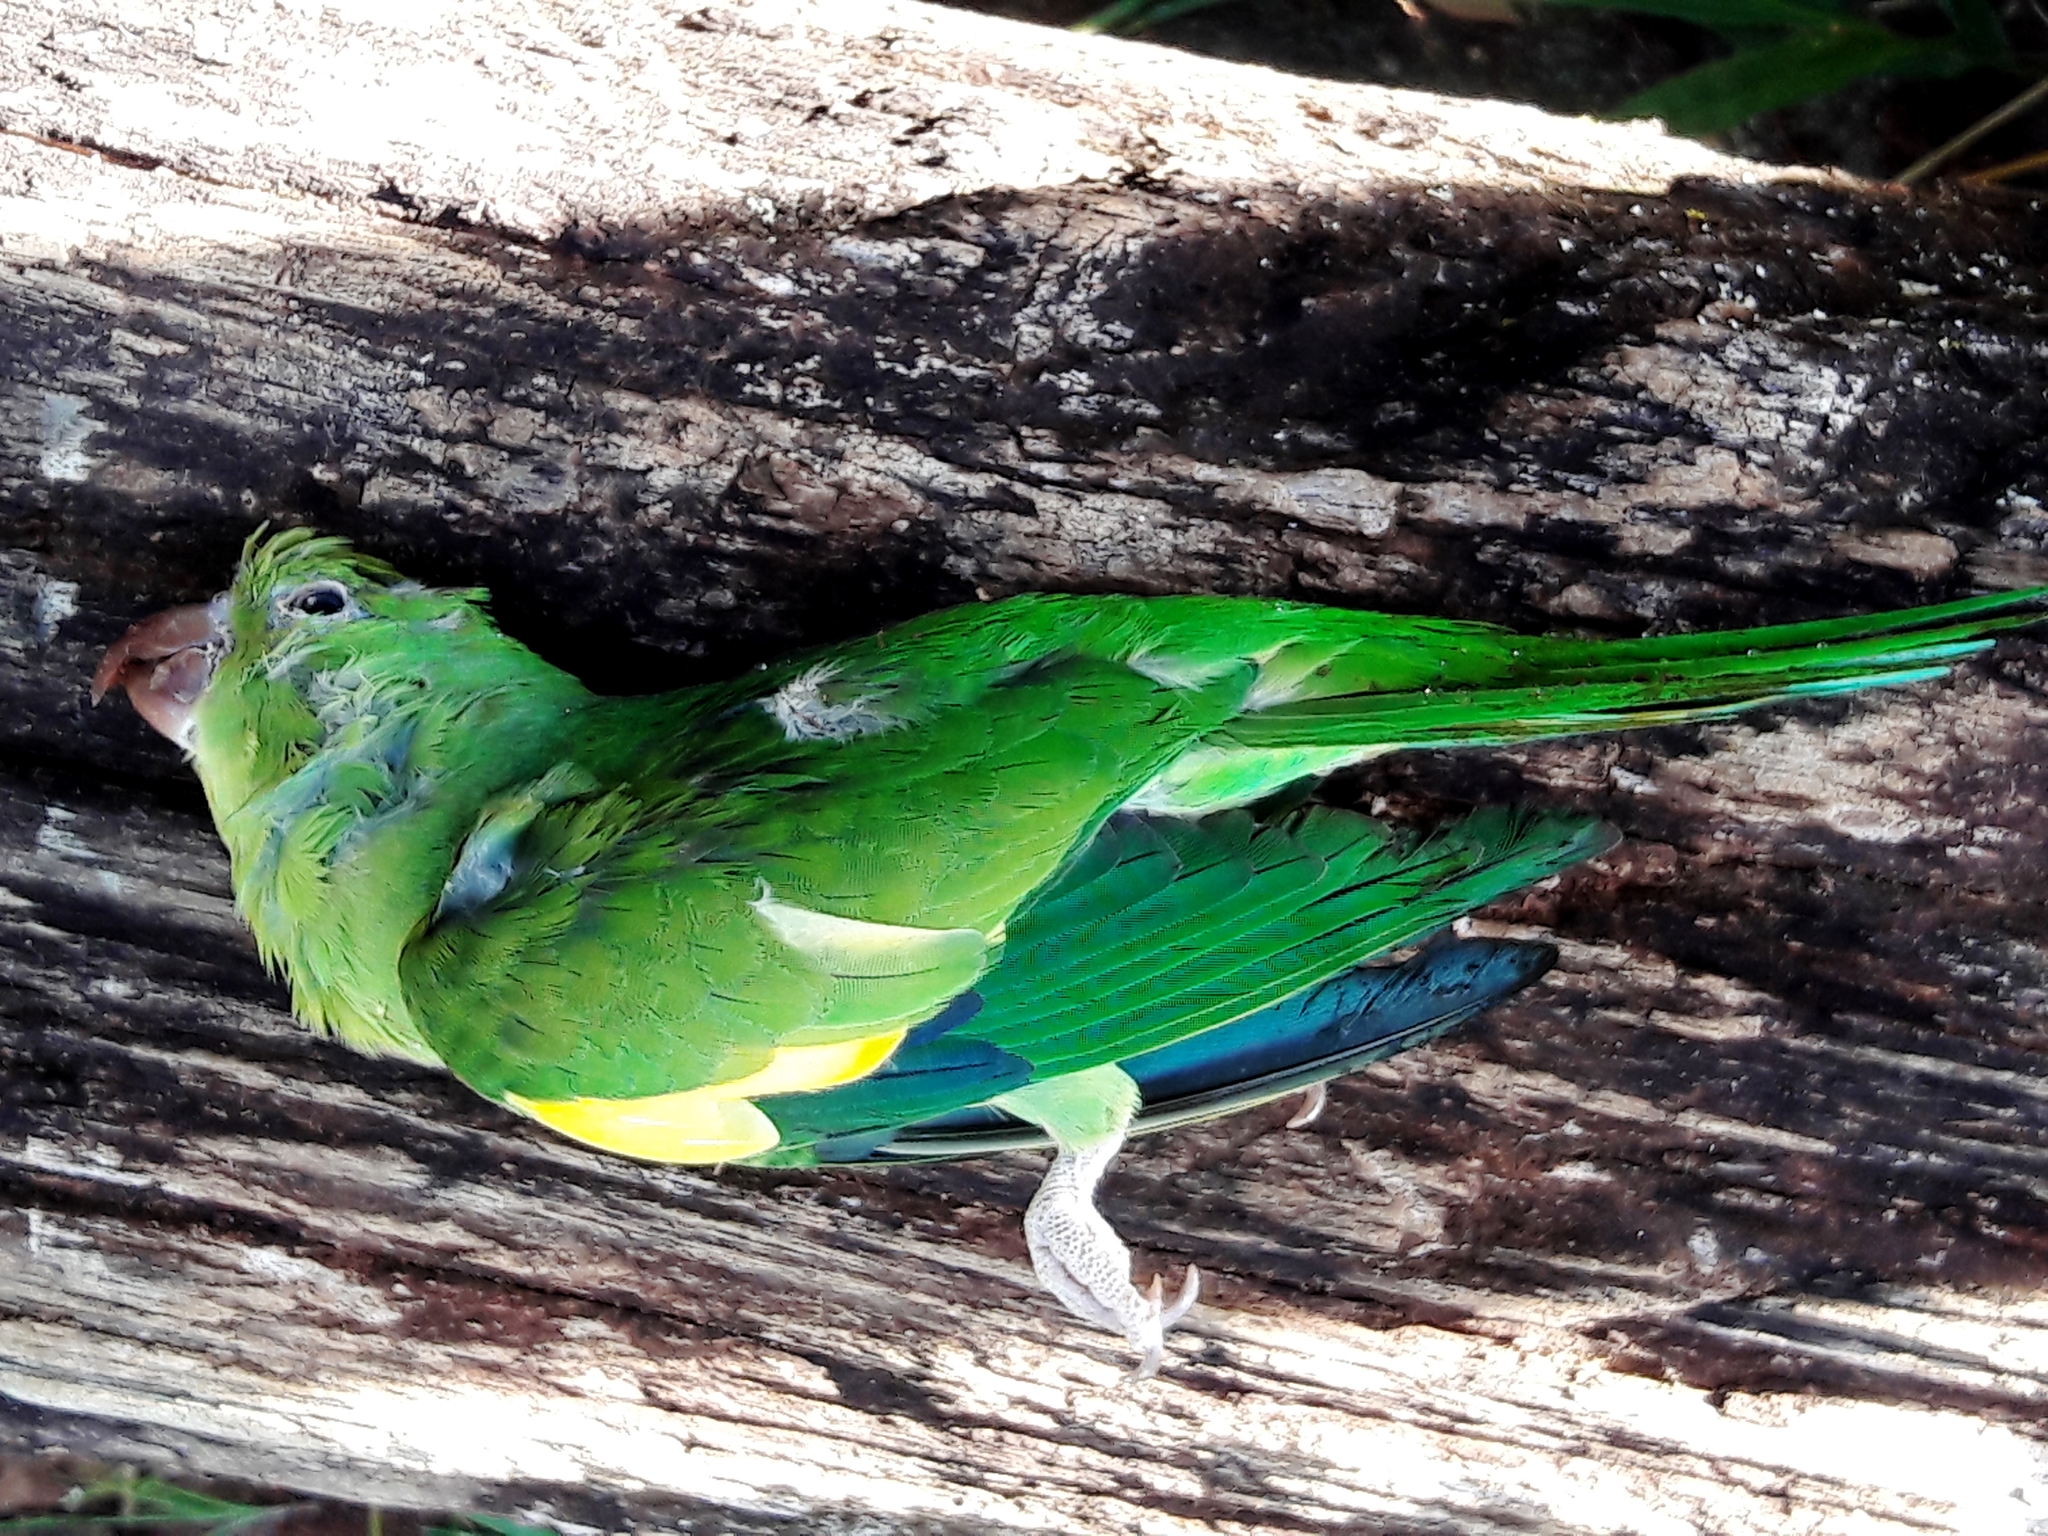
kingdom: Animalia
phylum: Chordata
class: Aves
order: Psittaciformes
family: Psittacidae
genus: Brotogeris
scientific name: Brotogeris chiriri
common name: Yellow-chevroned parakeet
